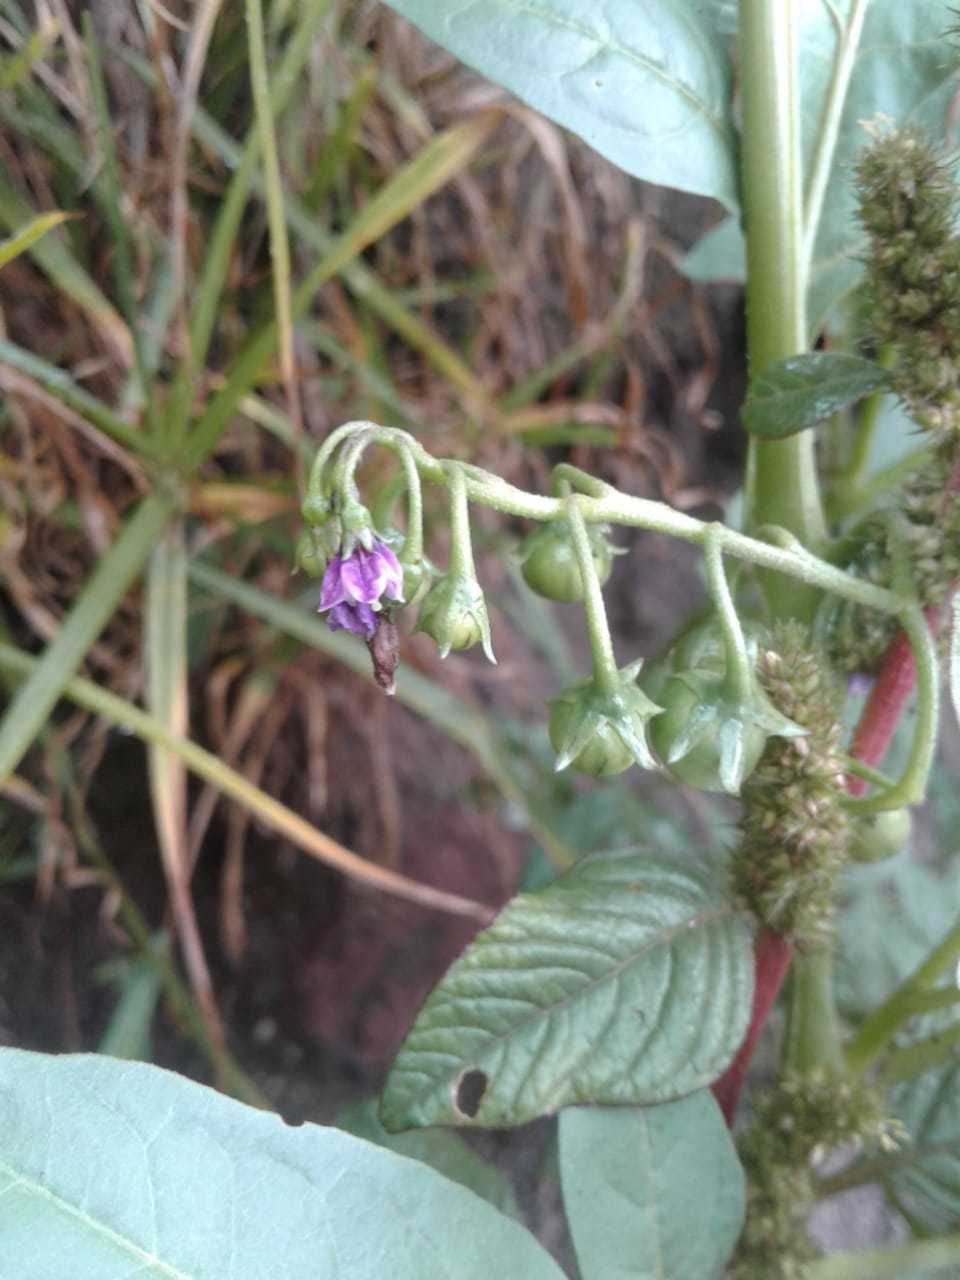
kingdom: Plantae
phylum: Tracheophyta
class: Magnoliopsida
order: Solanales
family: Solanaceae
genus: Solanum
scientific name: Solanum radicans
